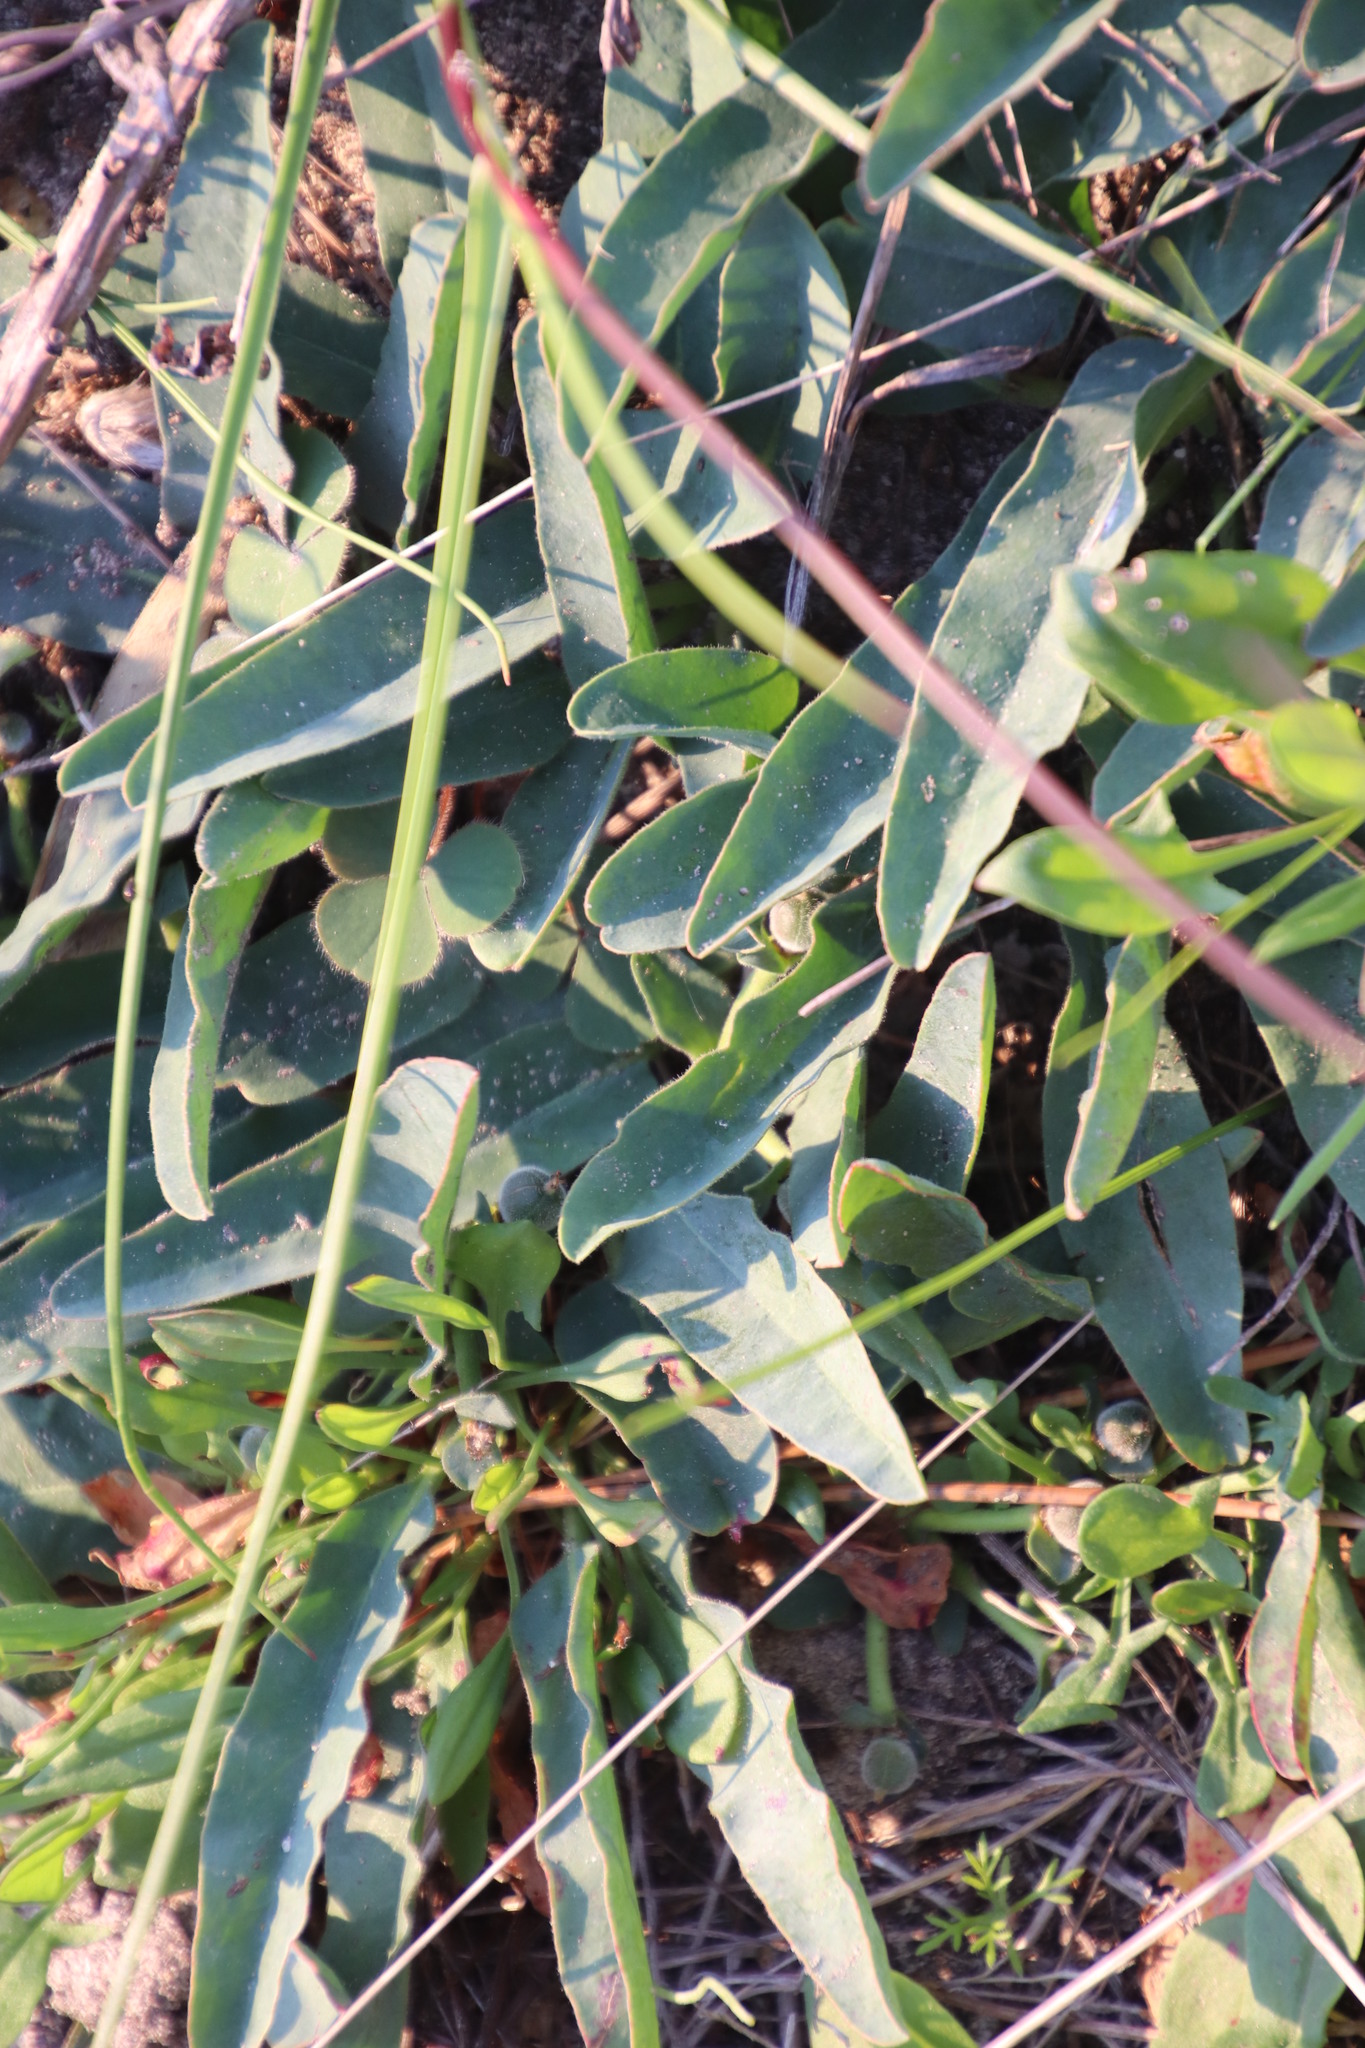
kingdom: Plantae
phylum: Tracheophyta
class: Magnoliopsida
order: Malpighiales
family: Euphorbiaceae
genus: Euphorbia
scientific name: Euphorbia tuberosa
